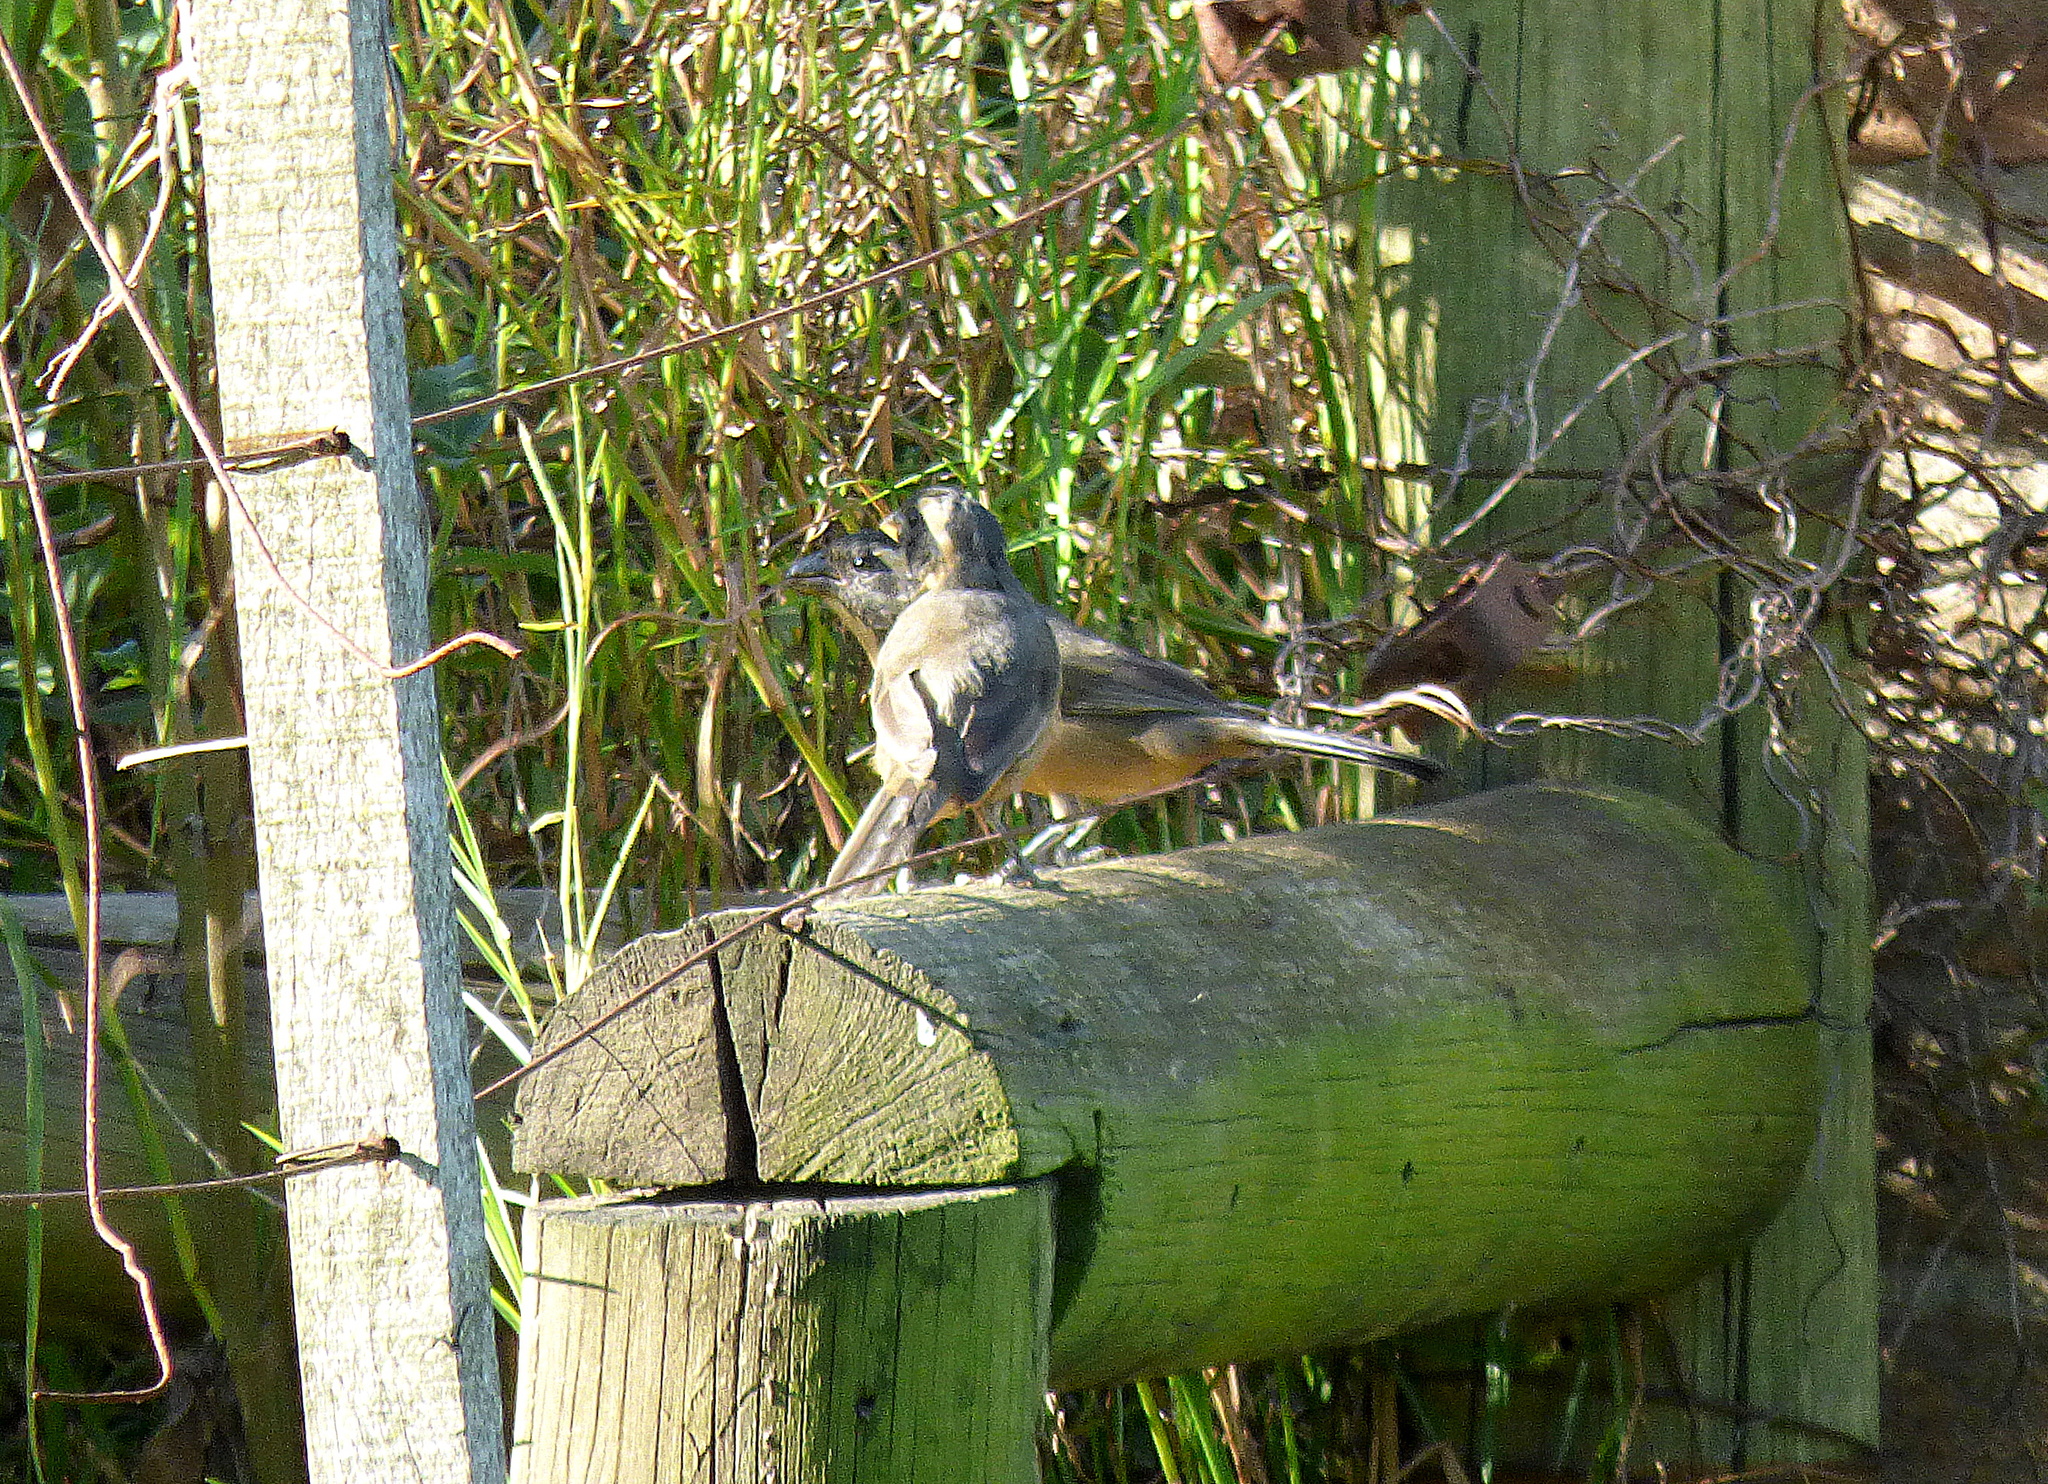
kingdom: Animalia
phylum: Chordata
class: Aves
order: Passeriformes
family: Thraupidae
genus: Saltator
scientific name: Saltator aurantiirostris
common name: Golden-billed saltator
